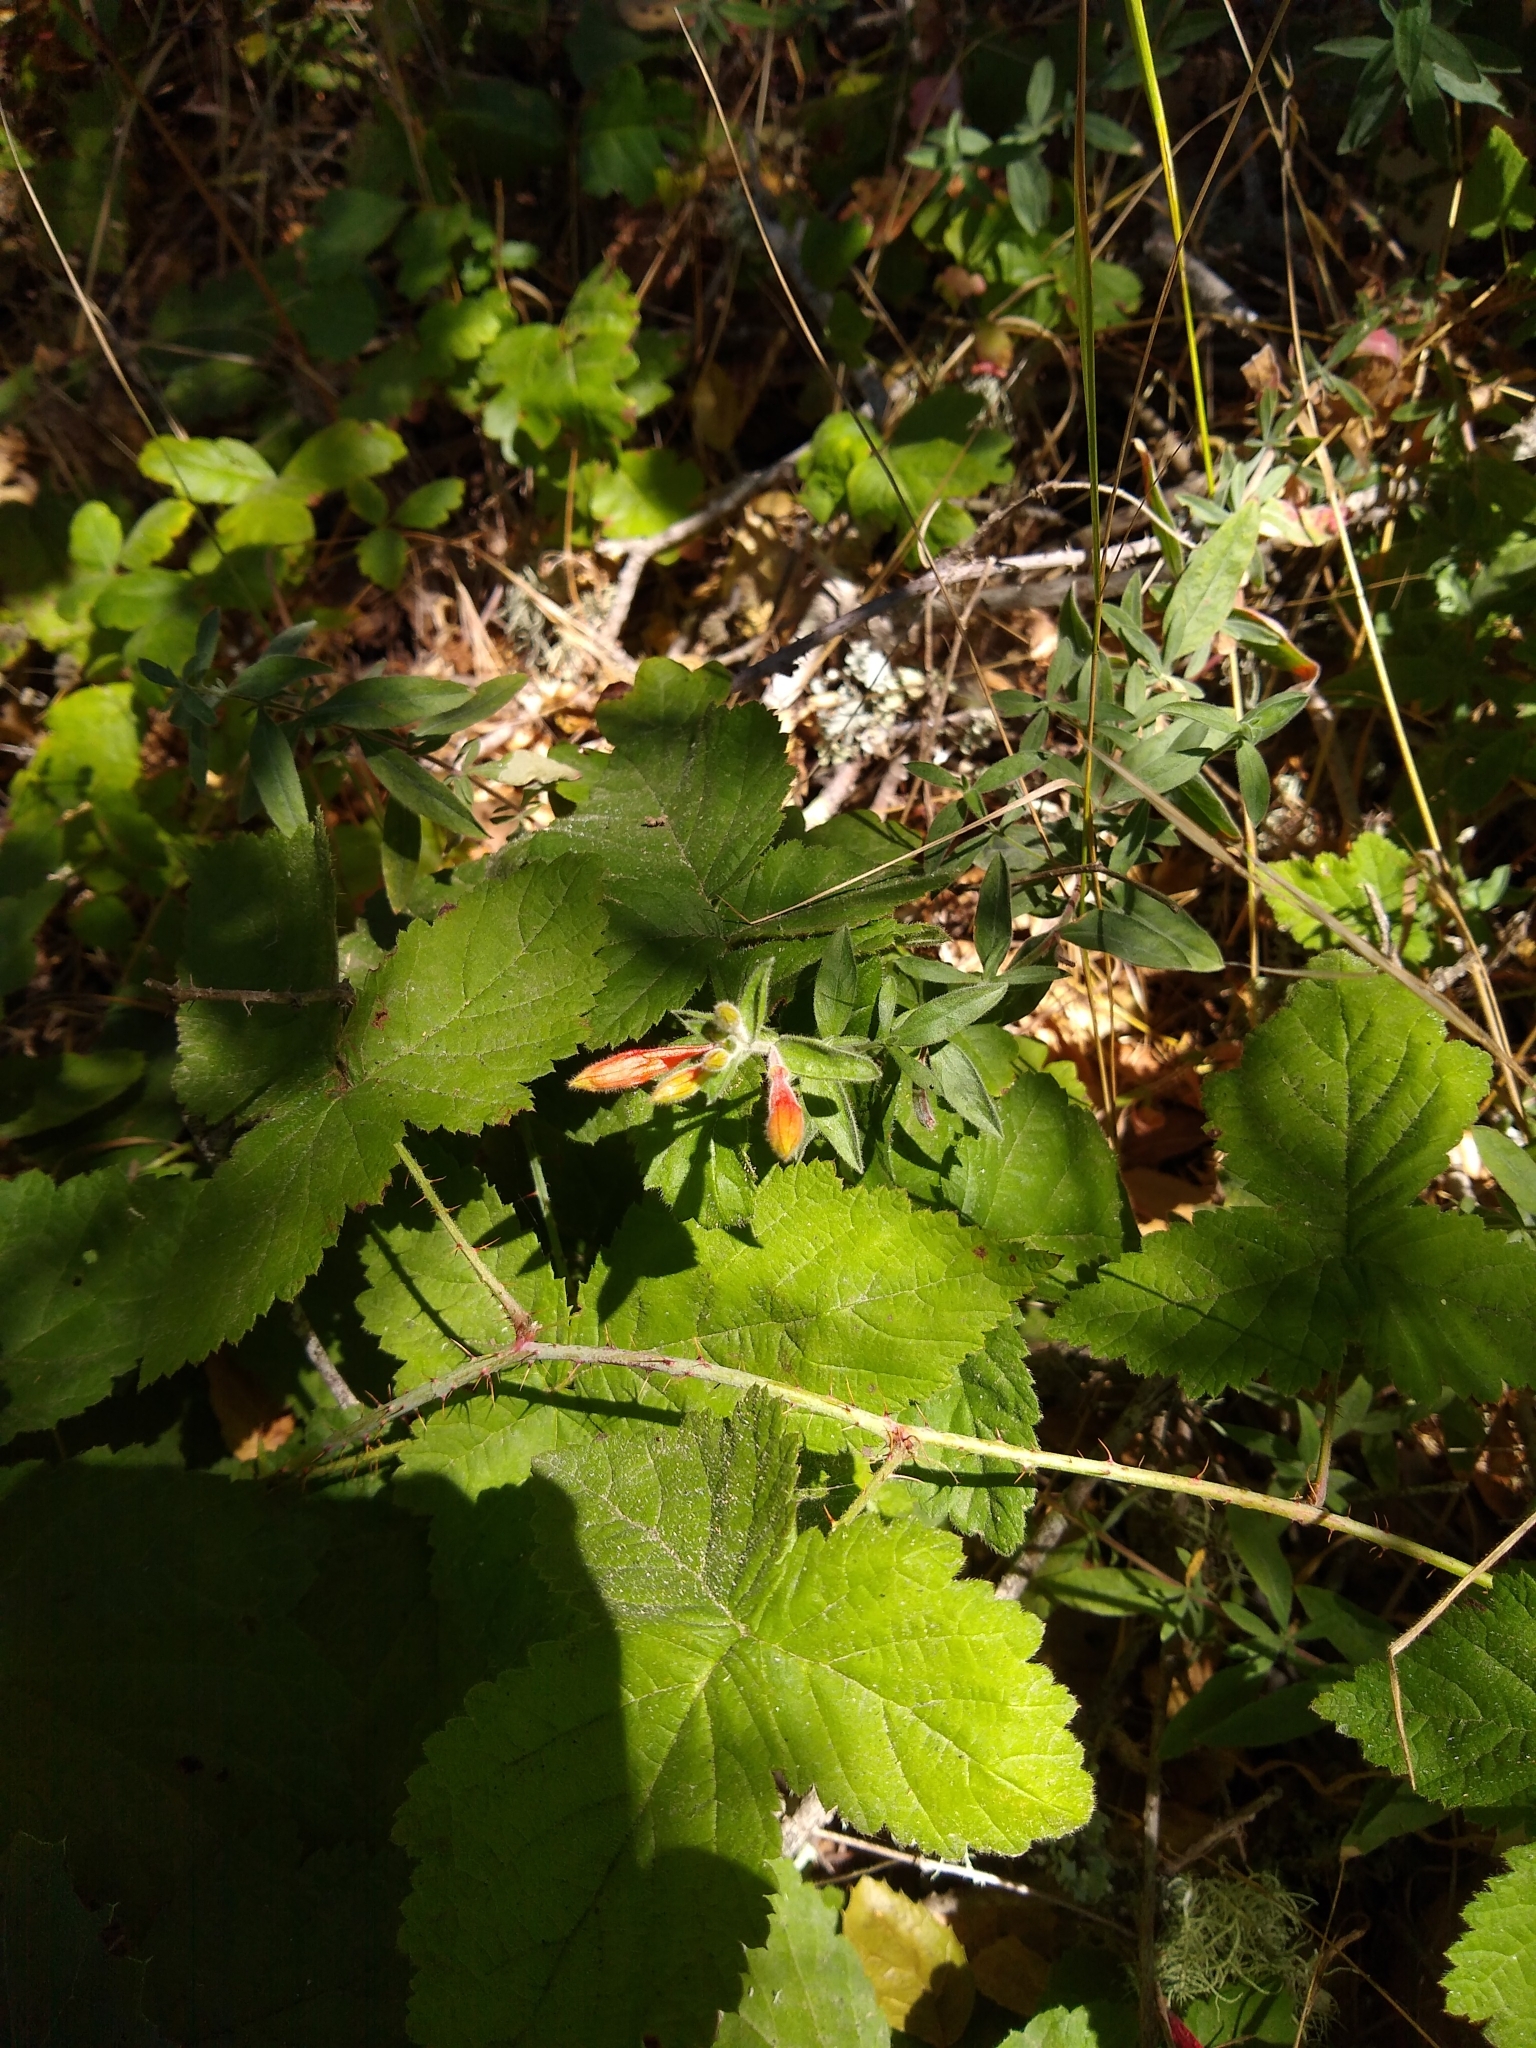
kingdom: Plantae
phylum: Tracheophyta
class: Magnoliopsida
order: Myrtales
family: Onagraceae
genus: Epilobium
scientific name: Epilobium canum
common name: California-fuchsia
